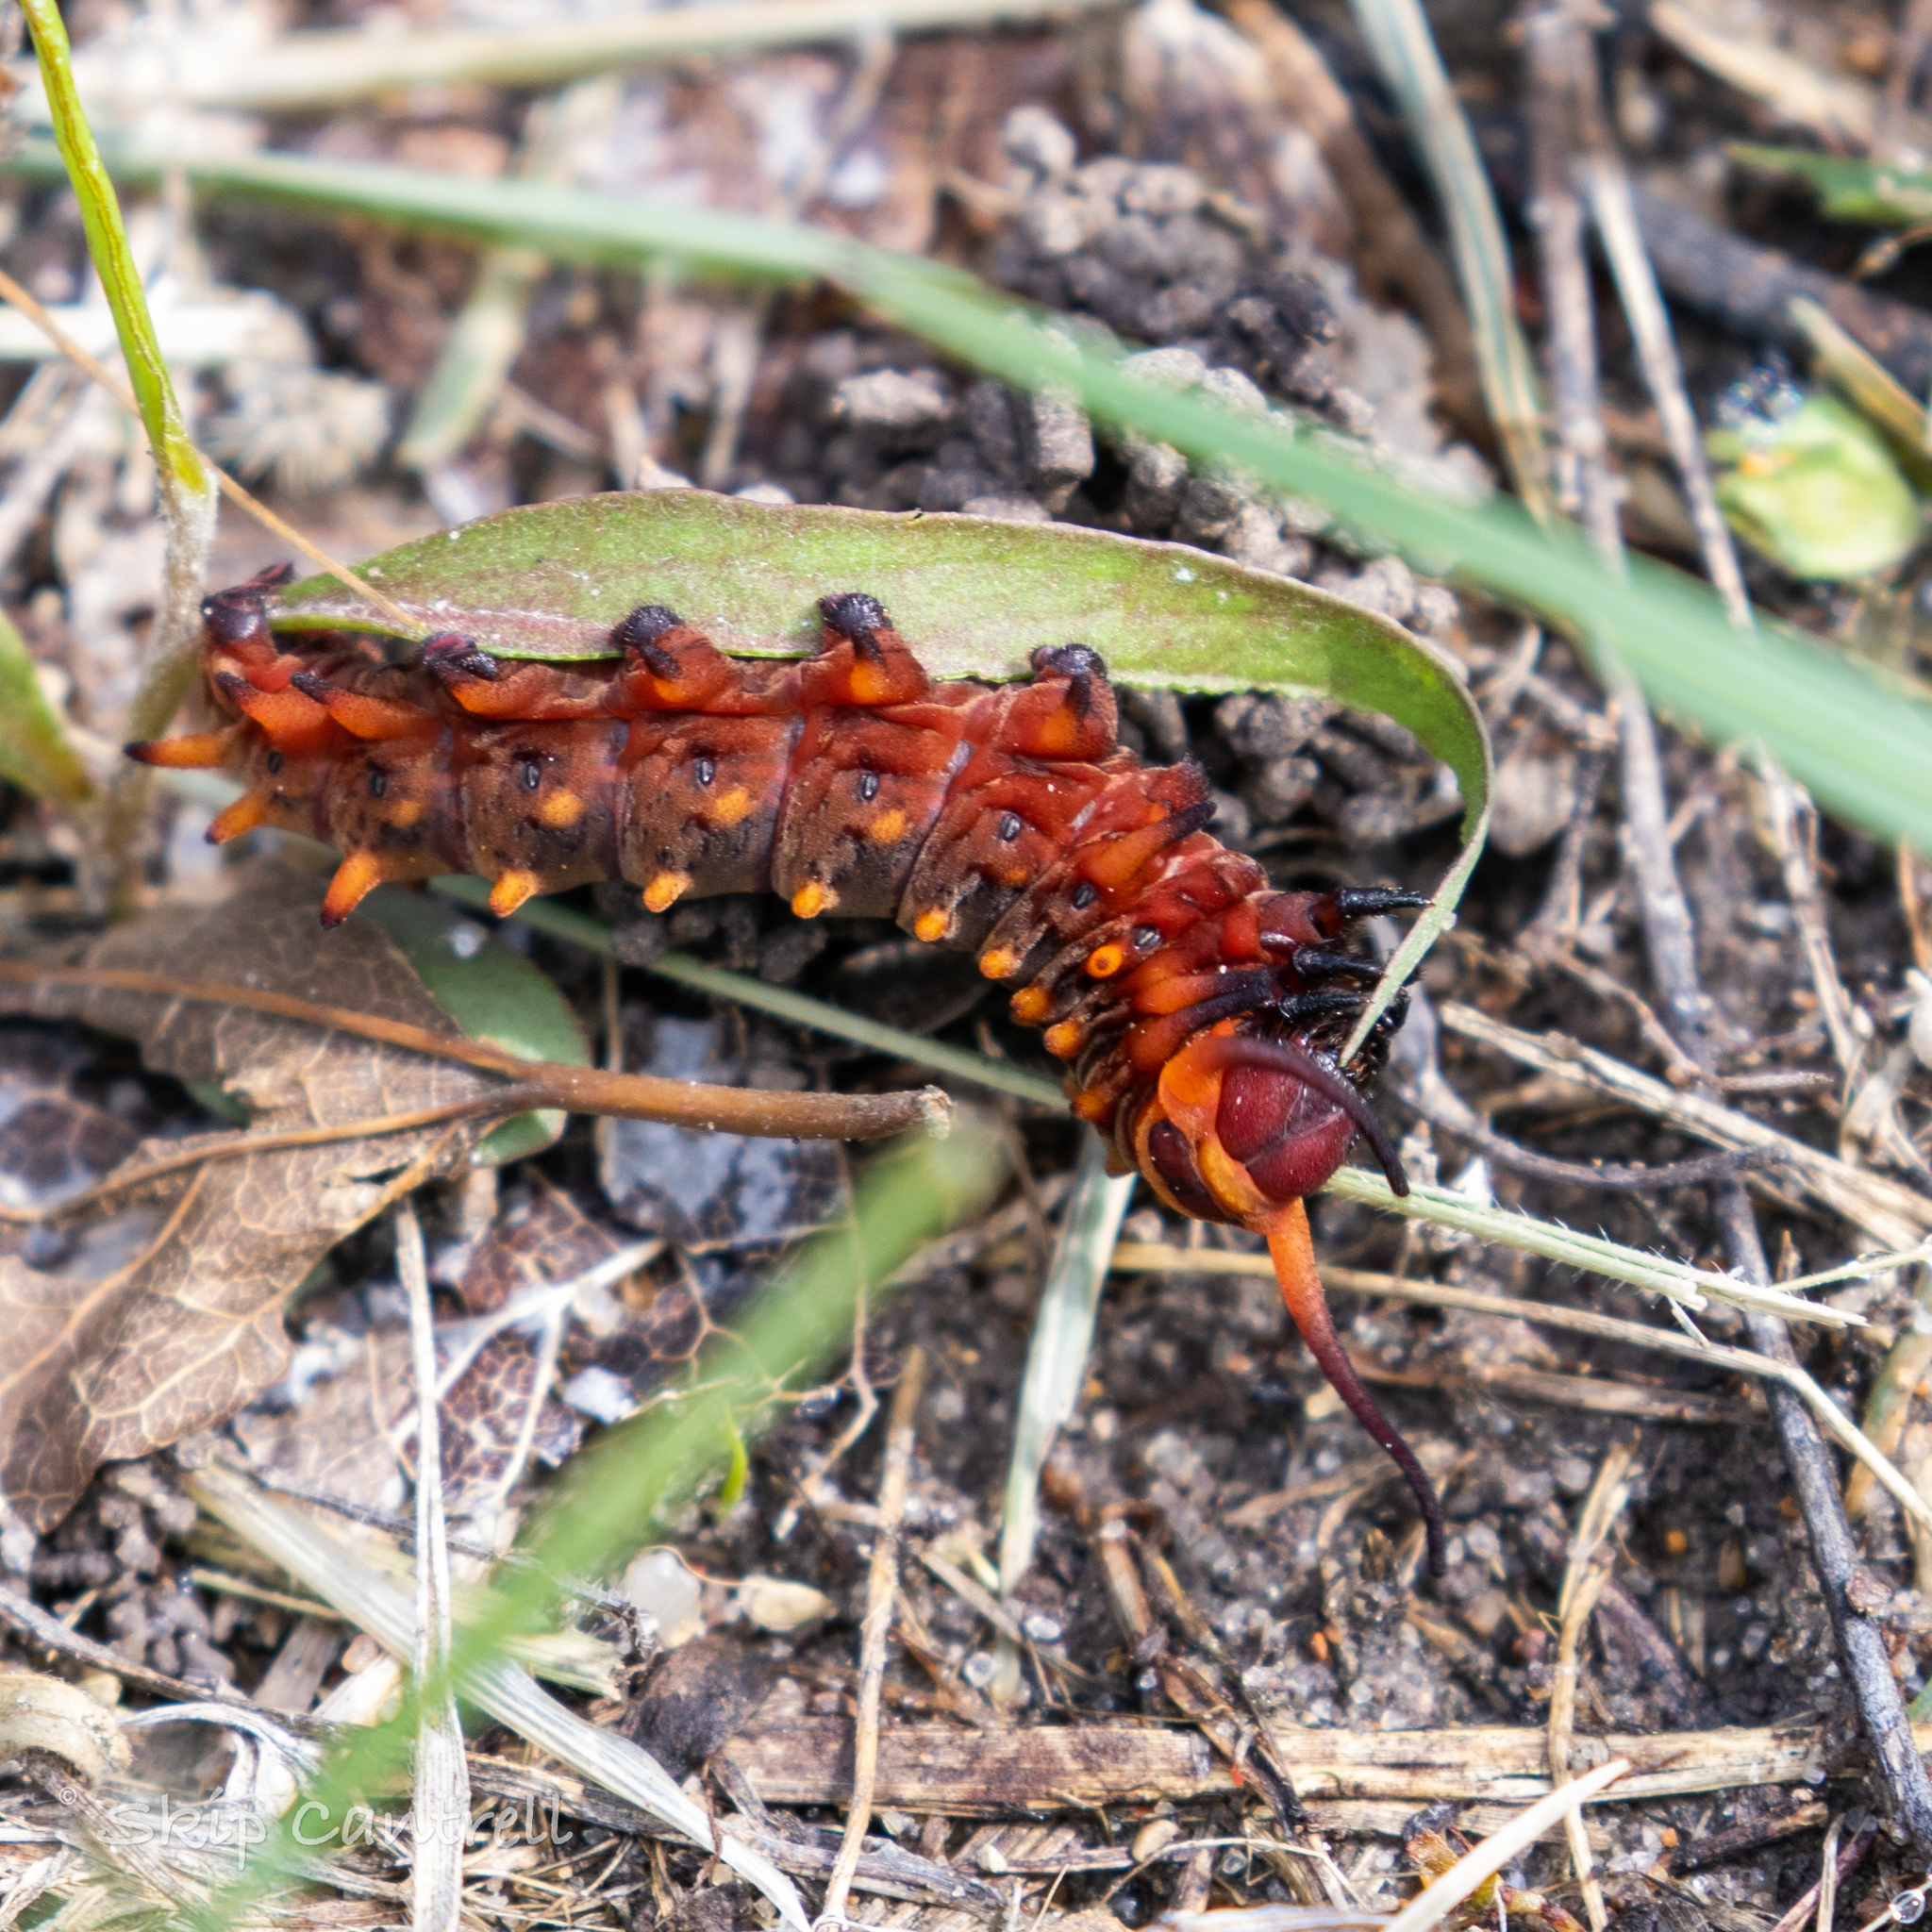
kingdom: Animalia
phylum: Arthropoda
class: Insecta
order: Lepidoptera
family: Papilionidae
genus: Battus
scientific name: Battus philenor
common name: Pipevine swallowtail
